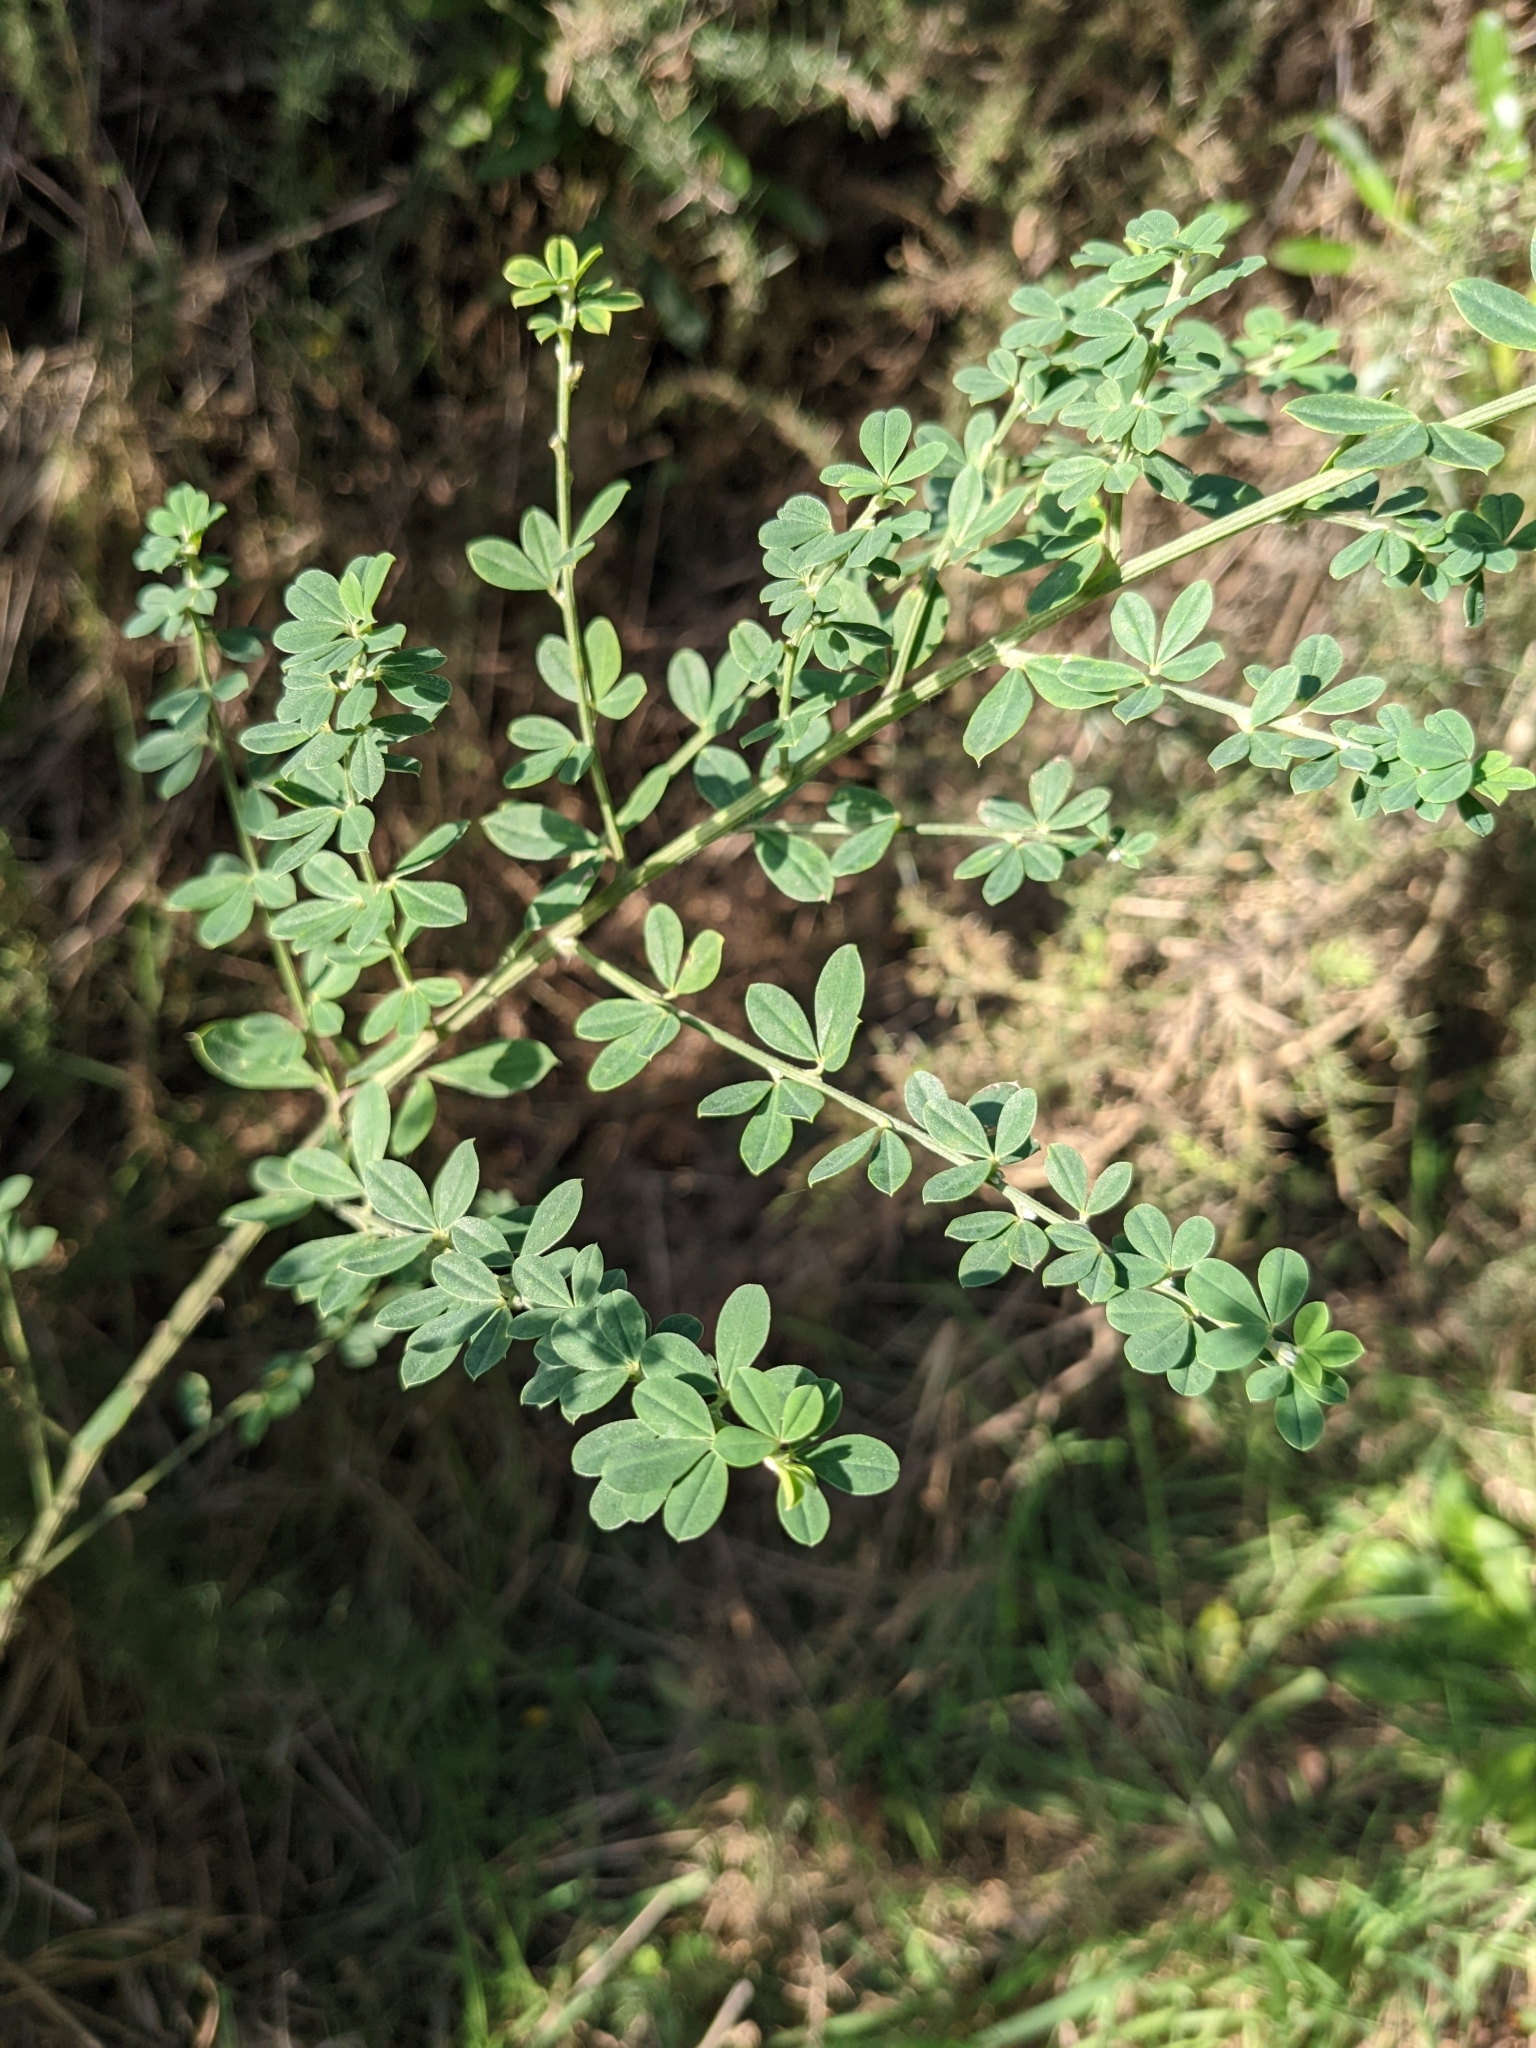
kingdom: Plantae
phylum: Tracheophyta
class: Magnoliopsida
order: Fabales
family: Fabaceae
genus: Genista
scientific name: Genista monspessulana
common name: Montpellier broom
